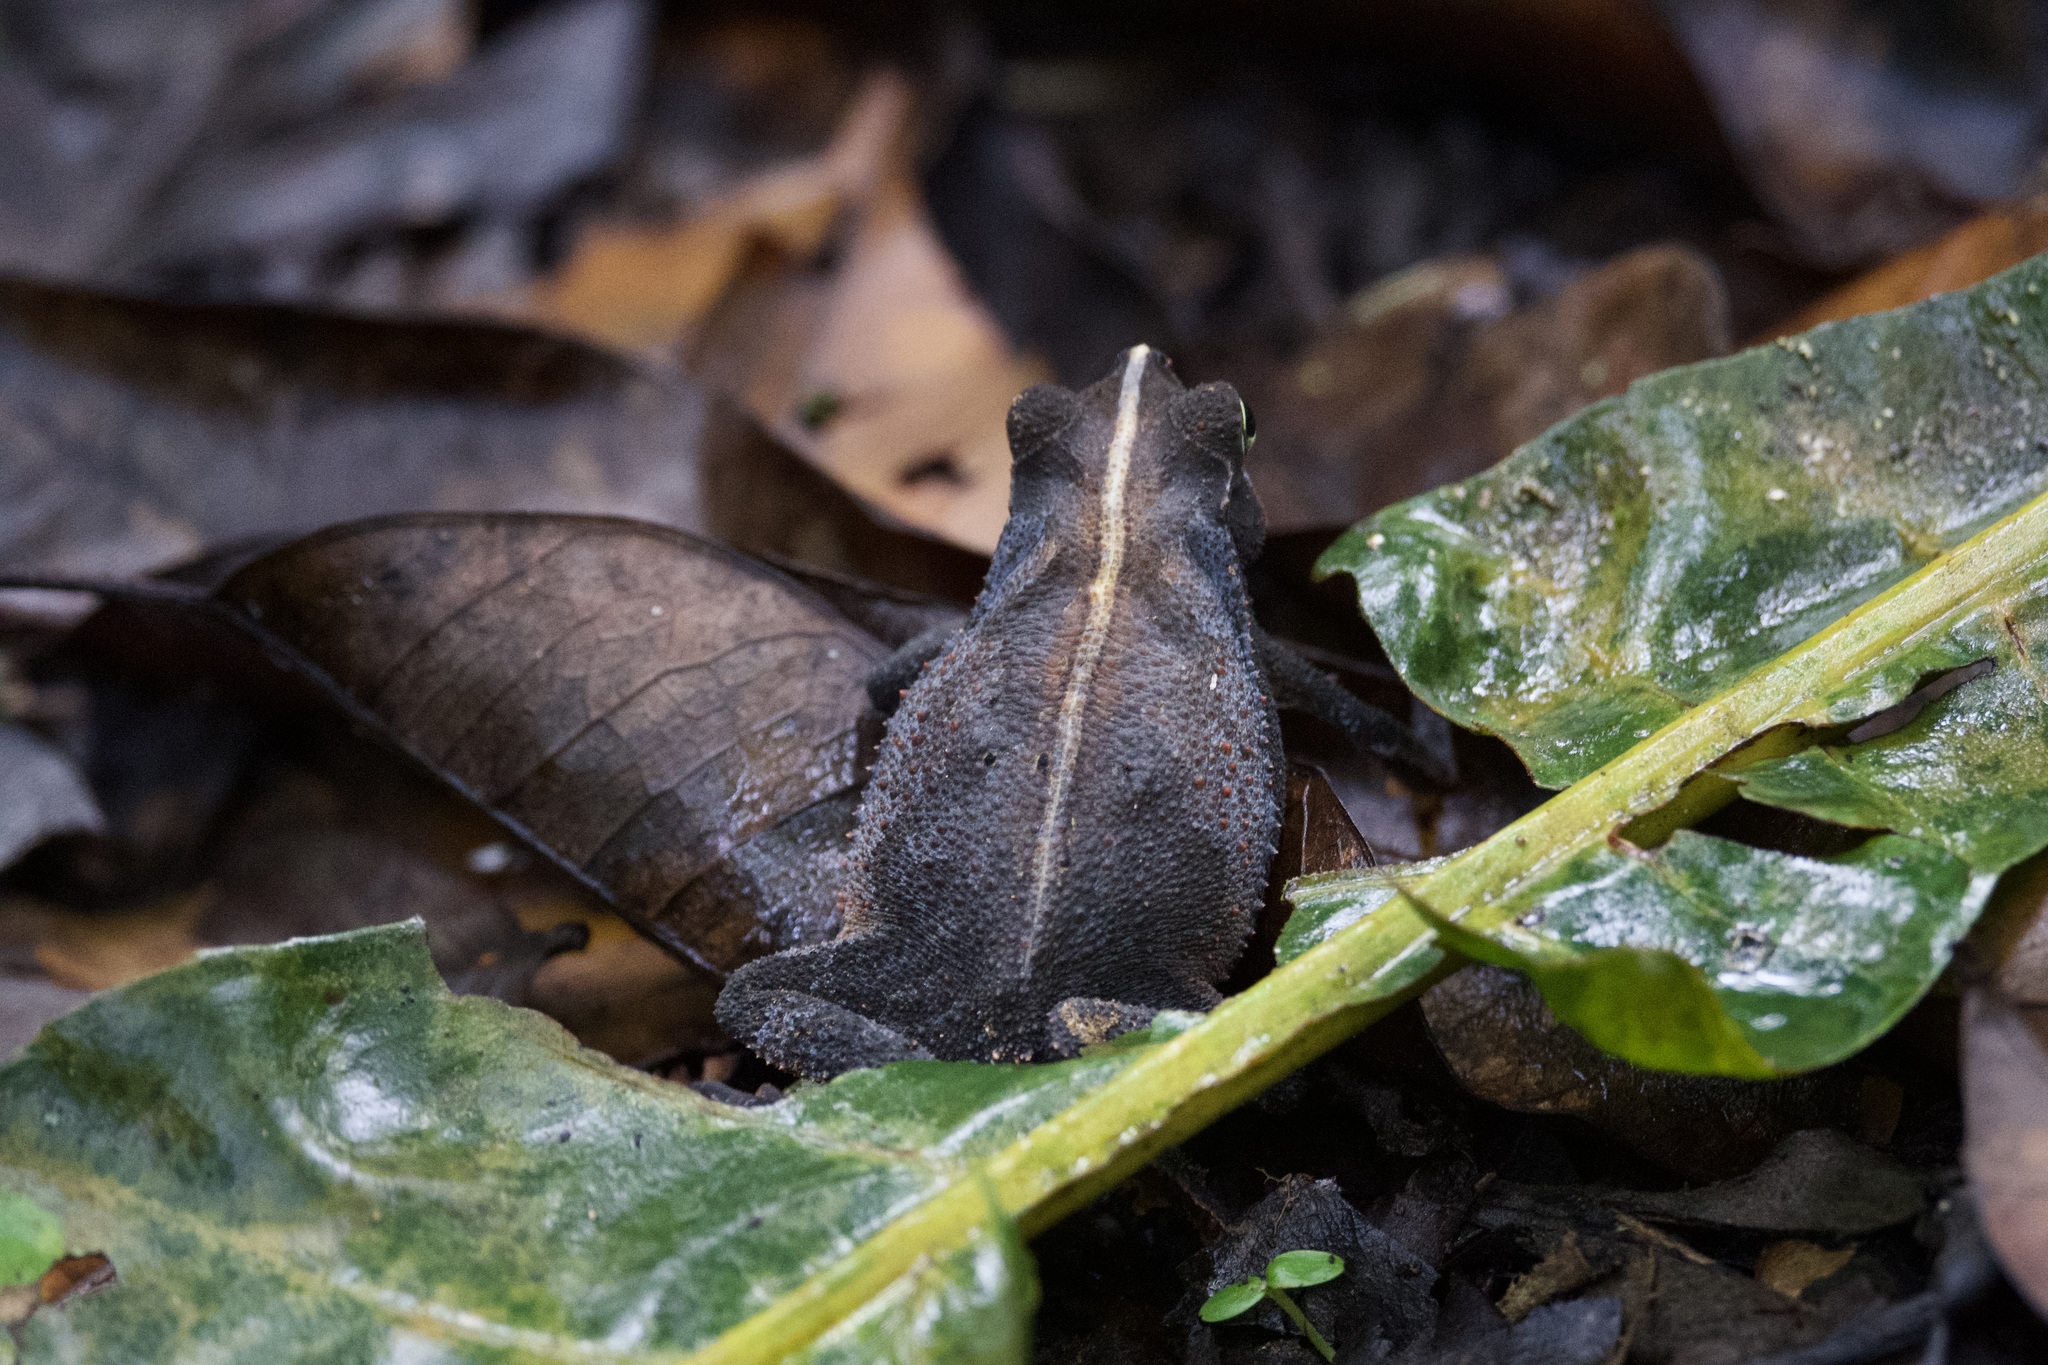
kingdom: Animalia
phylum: Chordata
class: Amphibia
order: Anura
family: Bufonidae
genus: Rhinella
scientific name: Rhinella alata
